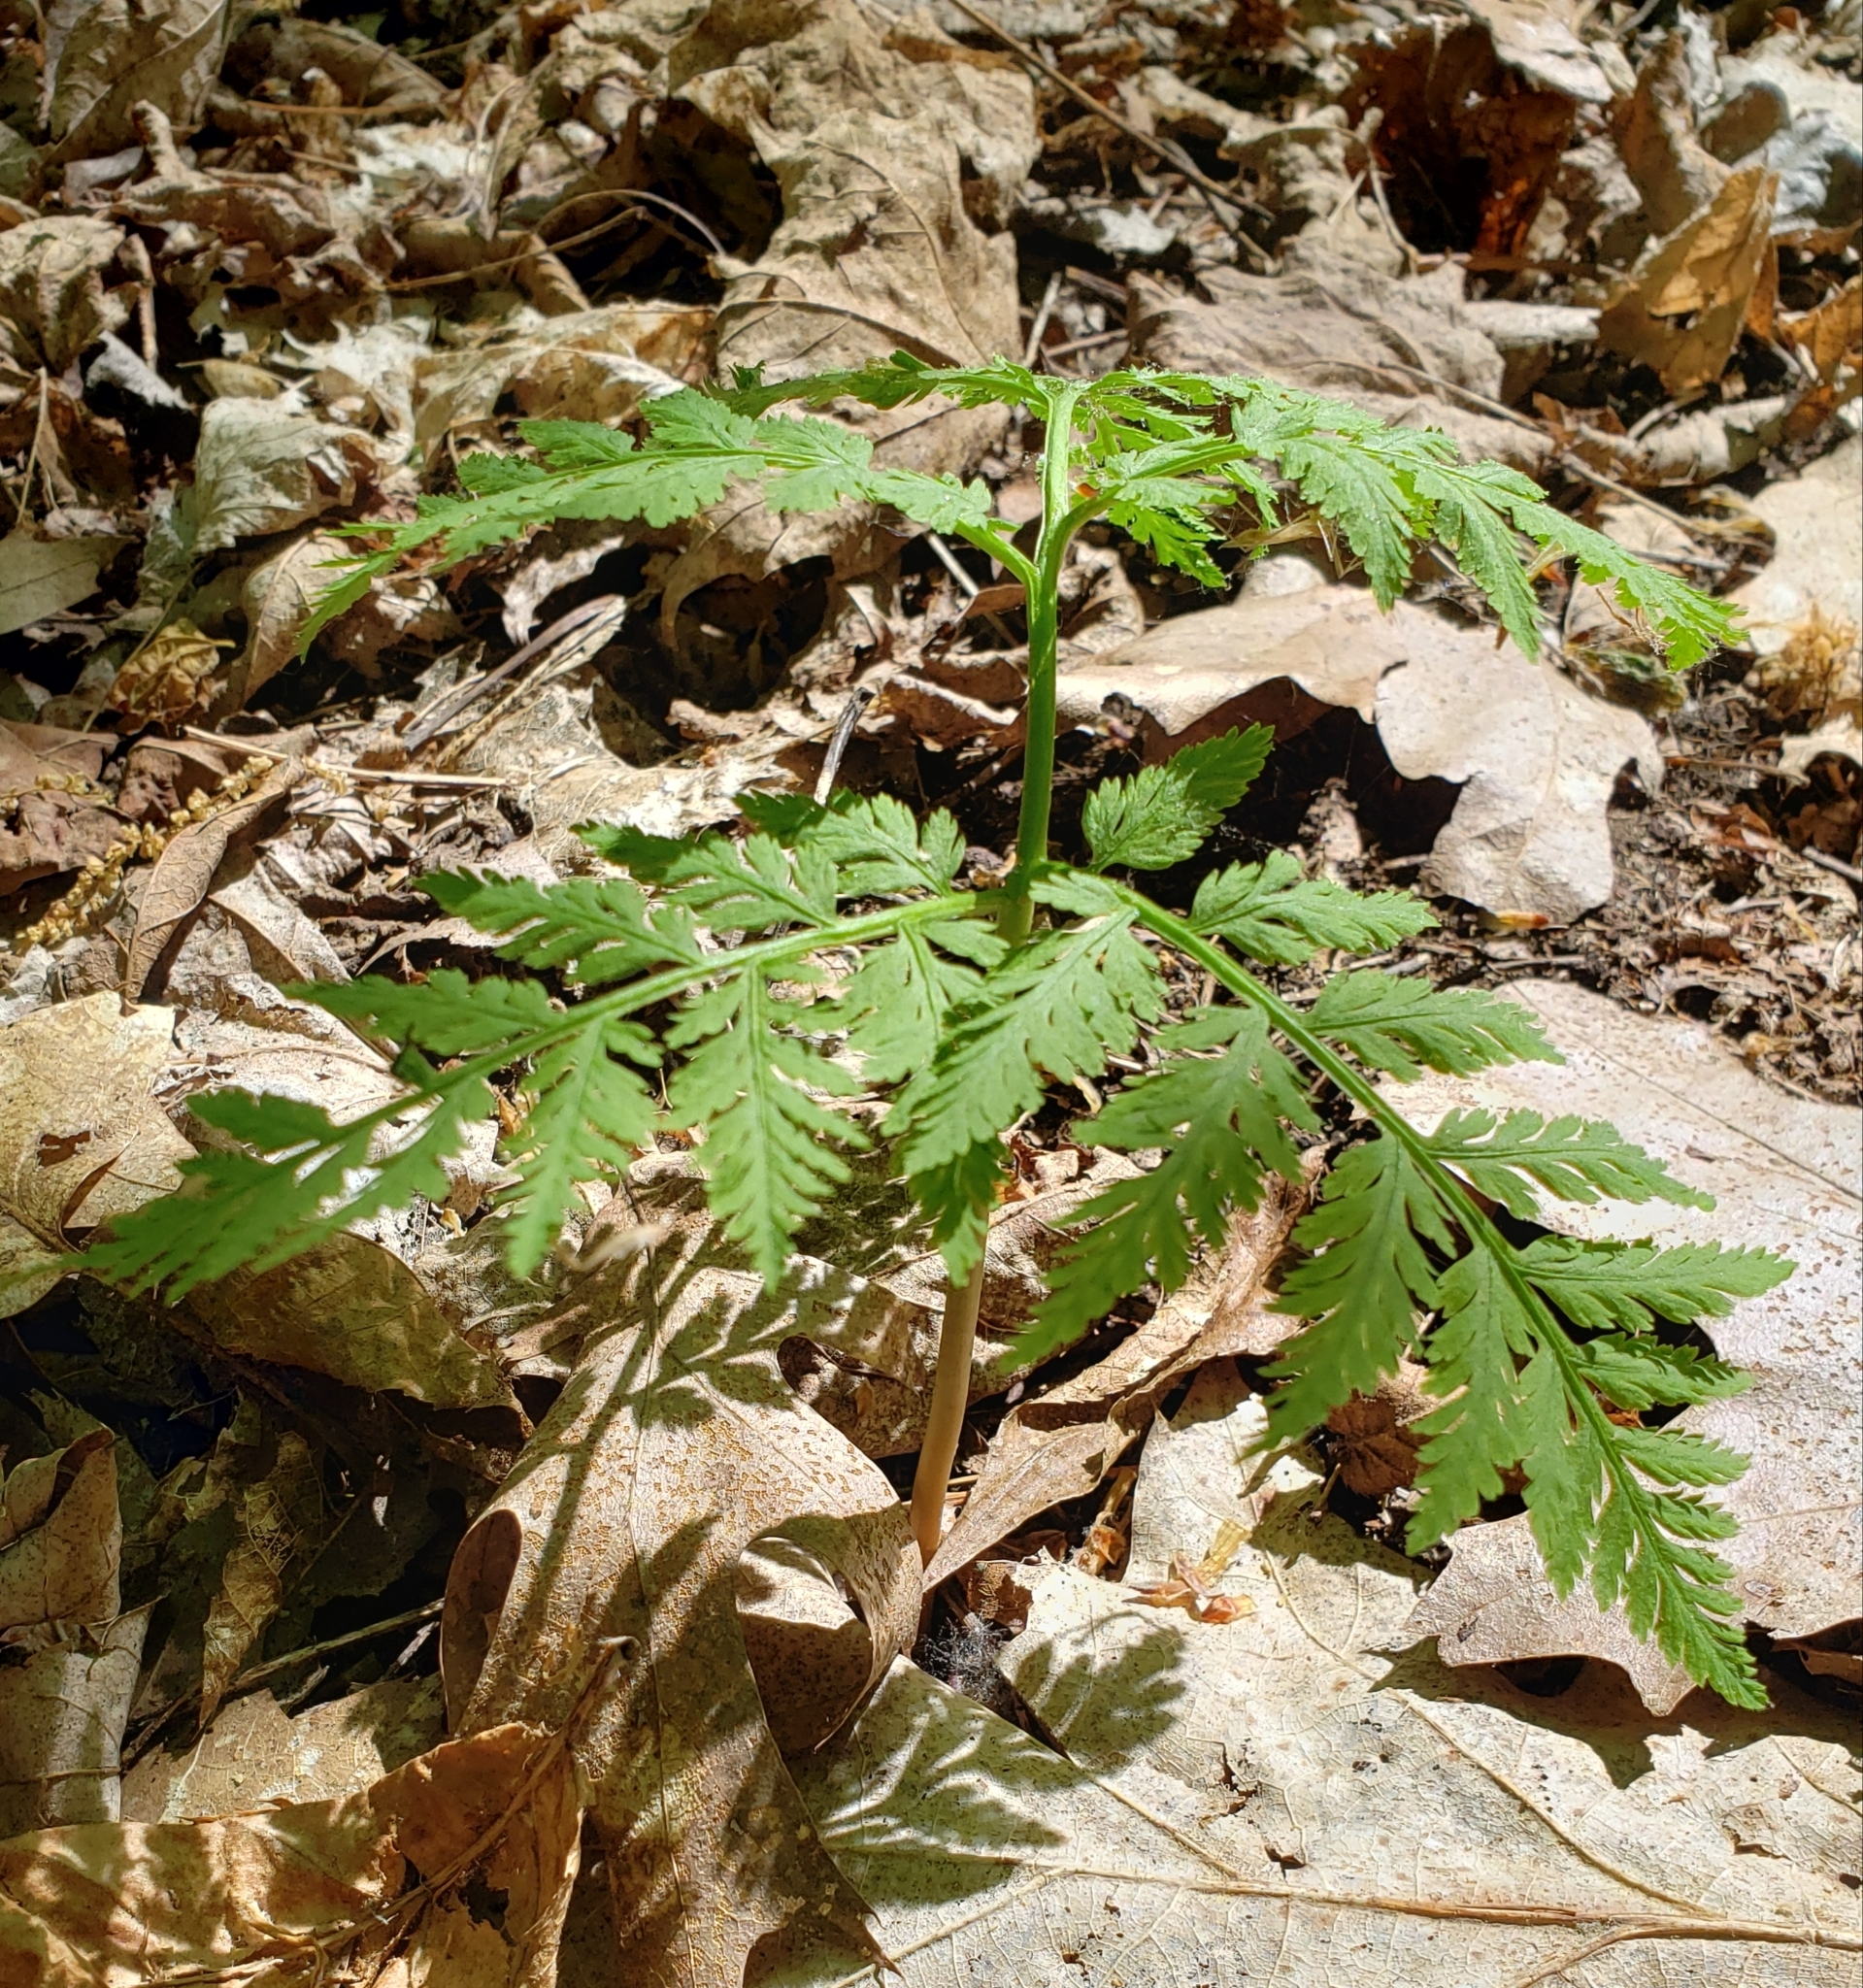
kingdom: Plantae
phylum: Tracheophyta
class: Polypodiopsida
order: Ophioglossales
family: Ophioglossaceae
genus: Botrypus
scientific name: Botrypus virginianus
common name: Common grapefern
